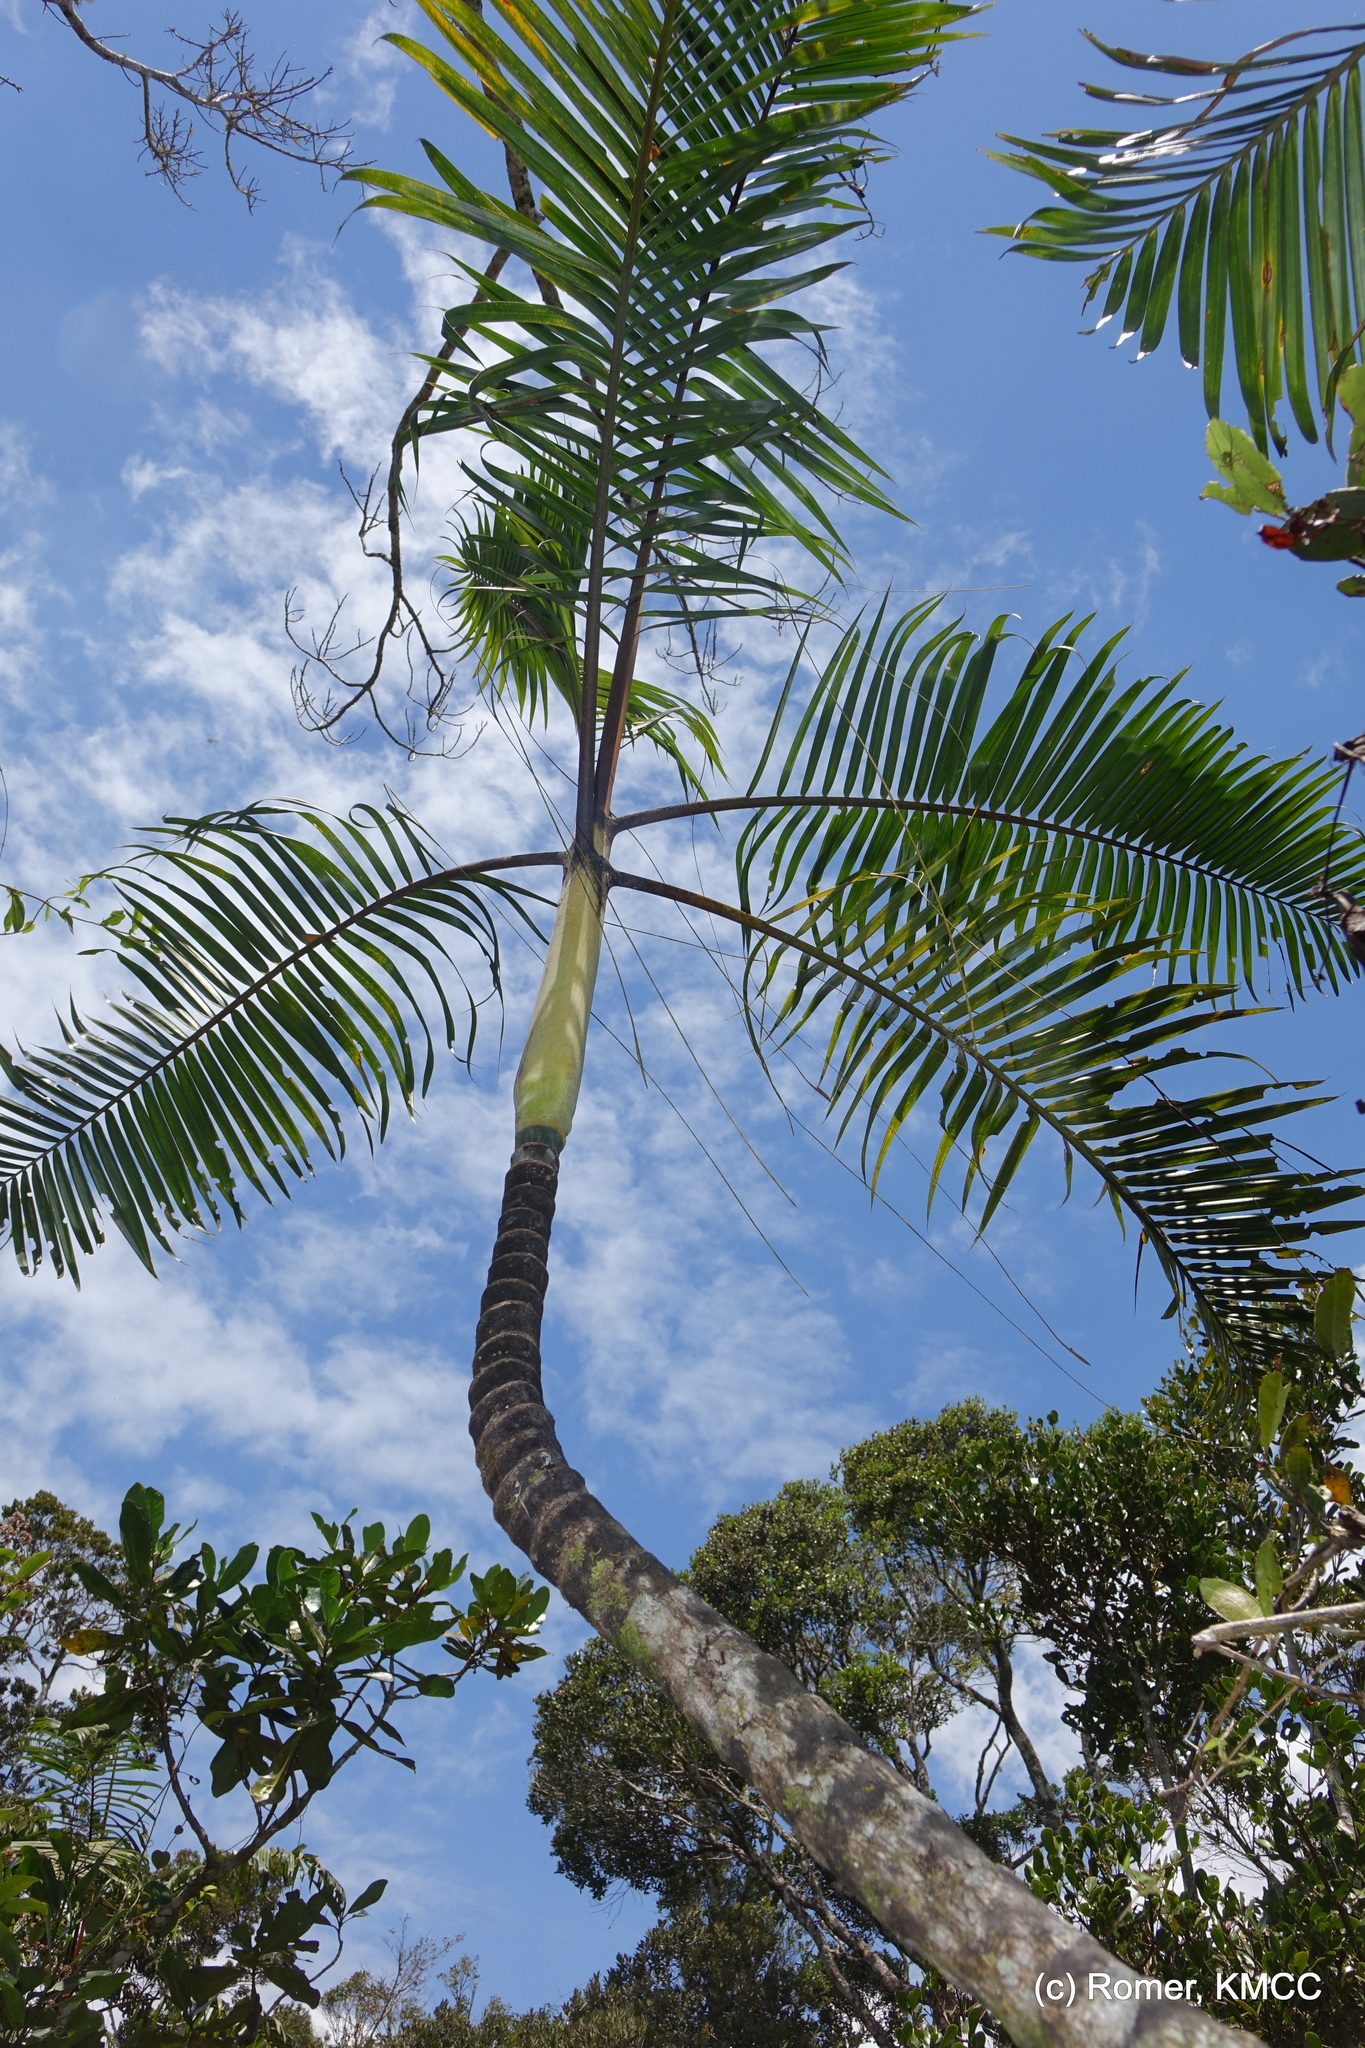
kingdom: Plantae
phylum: Tracheophyta
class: Liliopsida
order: Arecales
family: Arecaceae
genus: Dypsis
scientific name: Dypsis baronii
